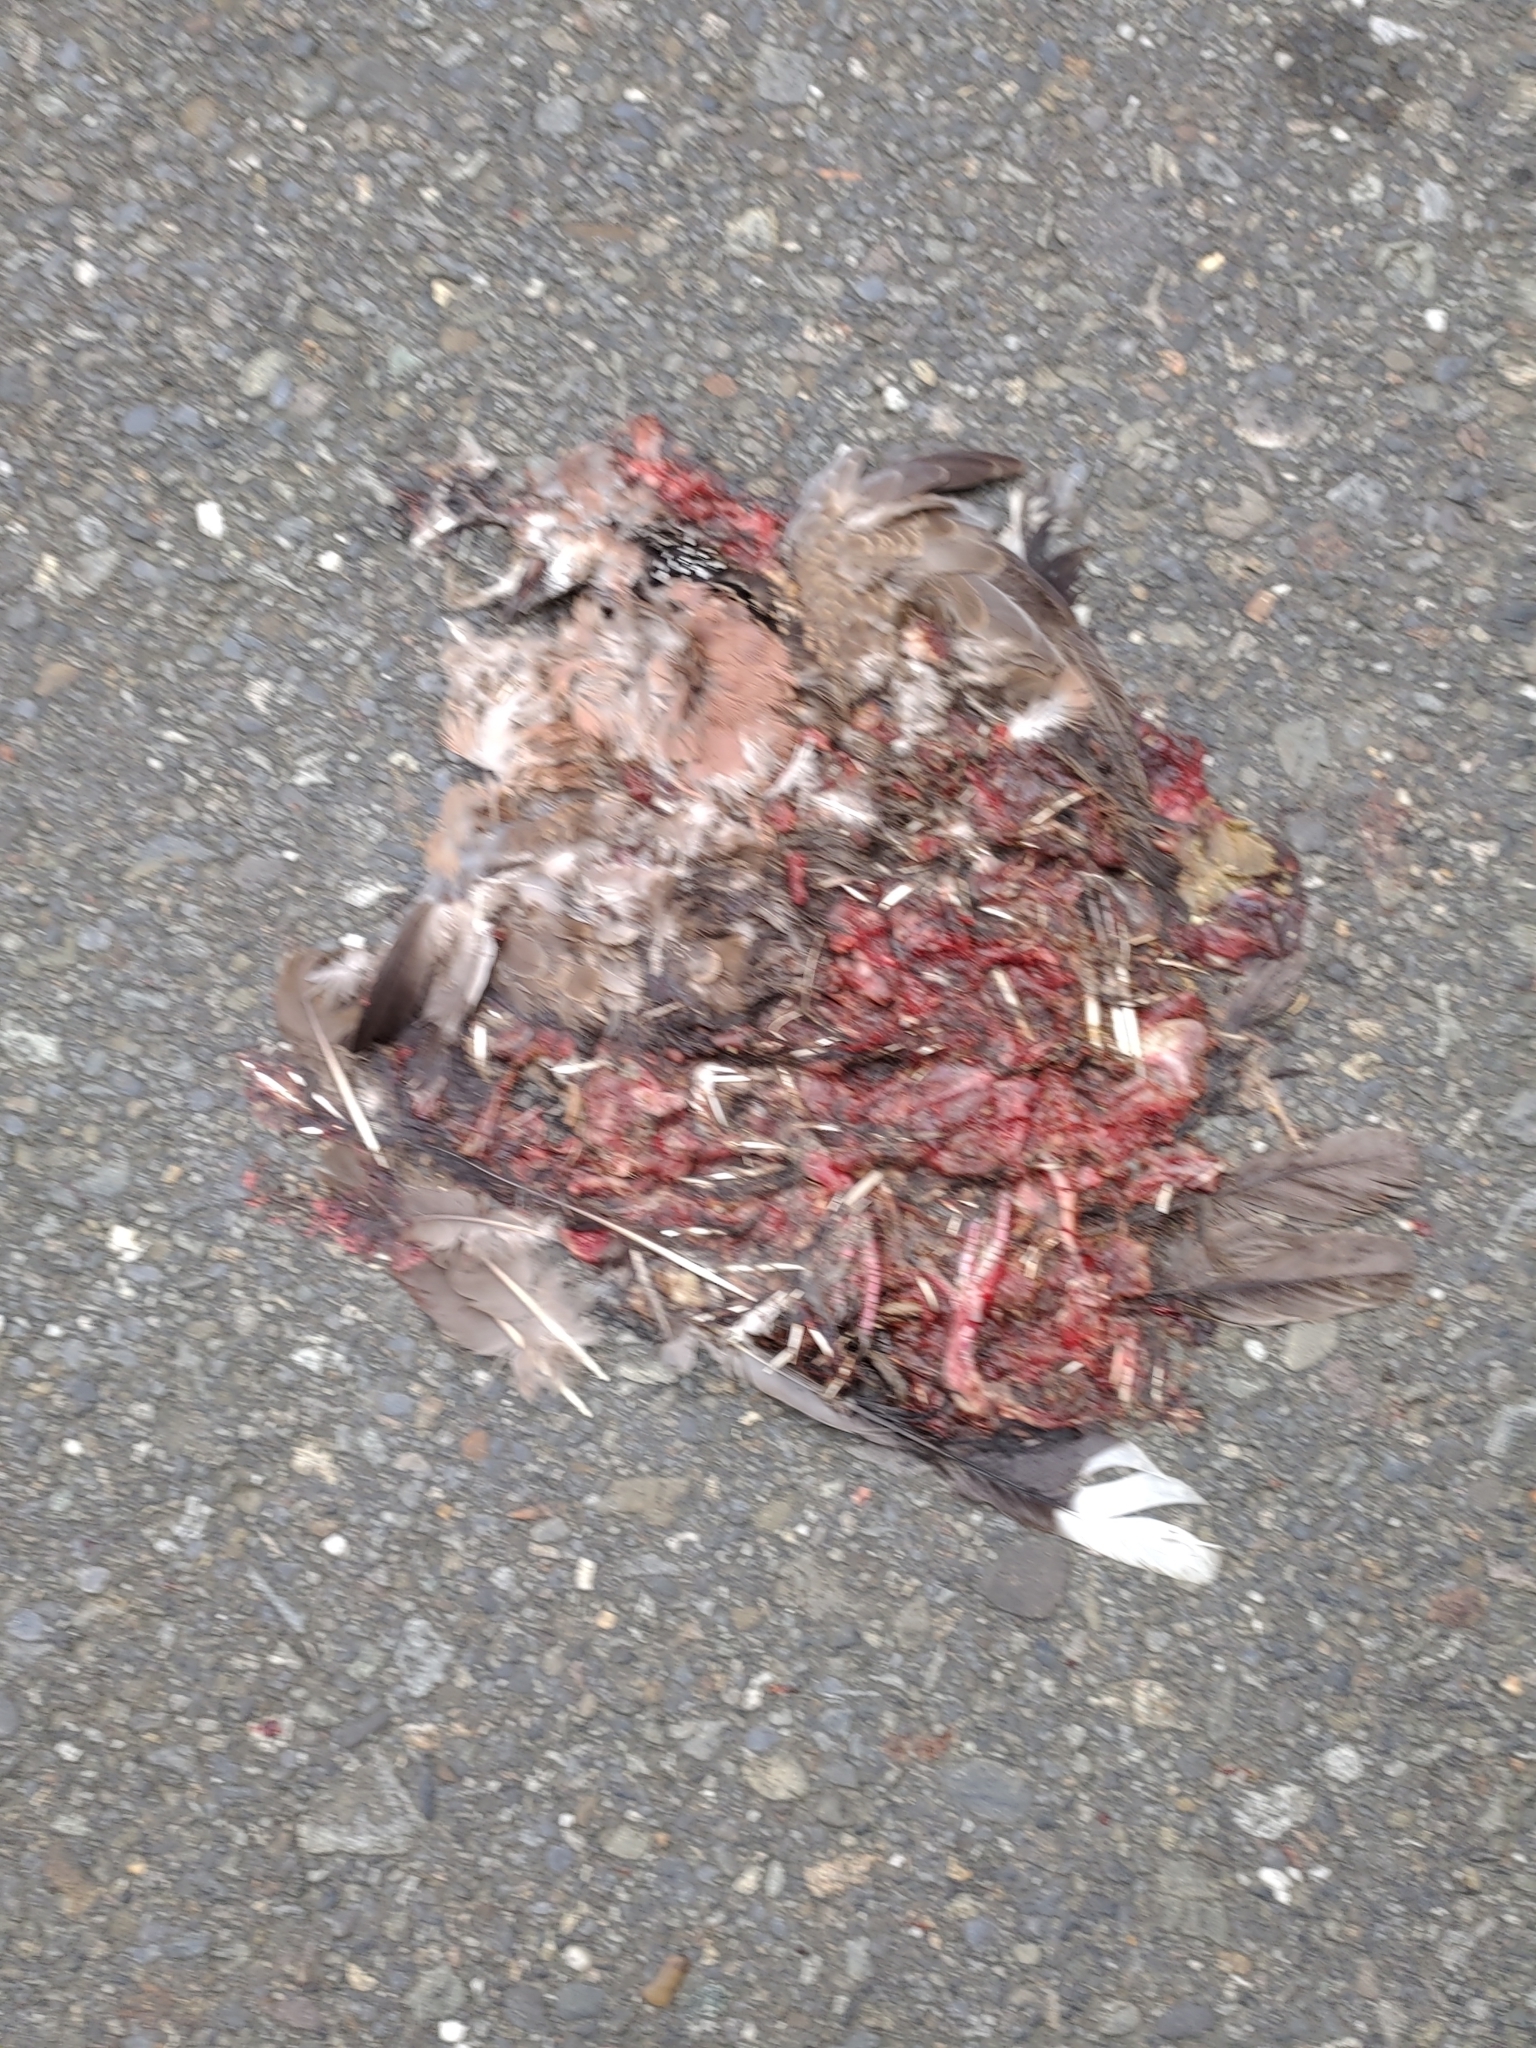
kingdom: Animalia
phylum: Chordata
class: Aves
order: Columbiformes
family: Columbidae
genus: Spilopelia
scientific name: Spilopelia chinensis
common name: Spotted dove
